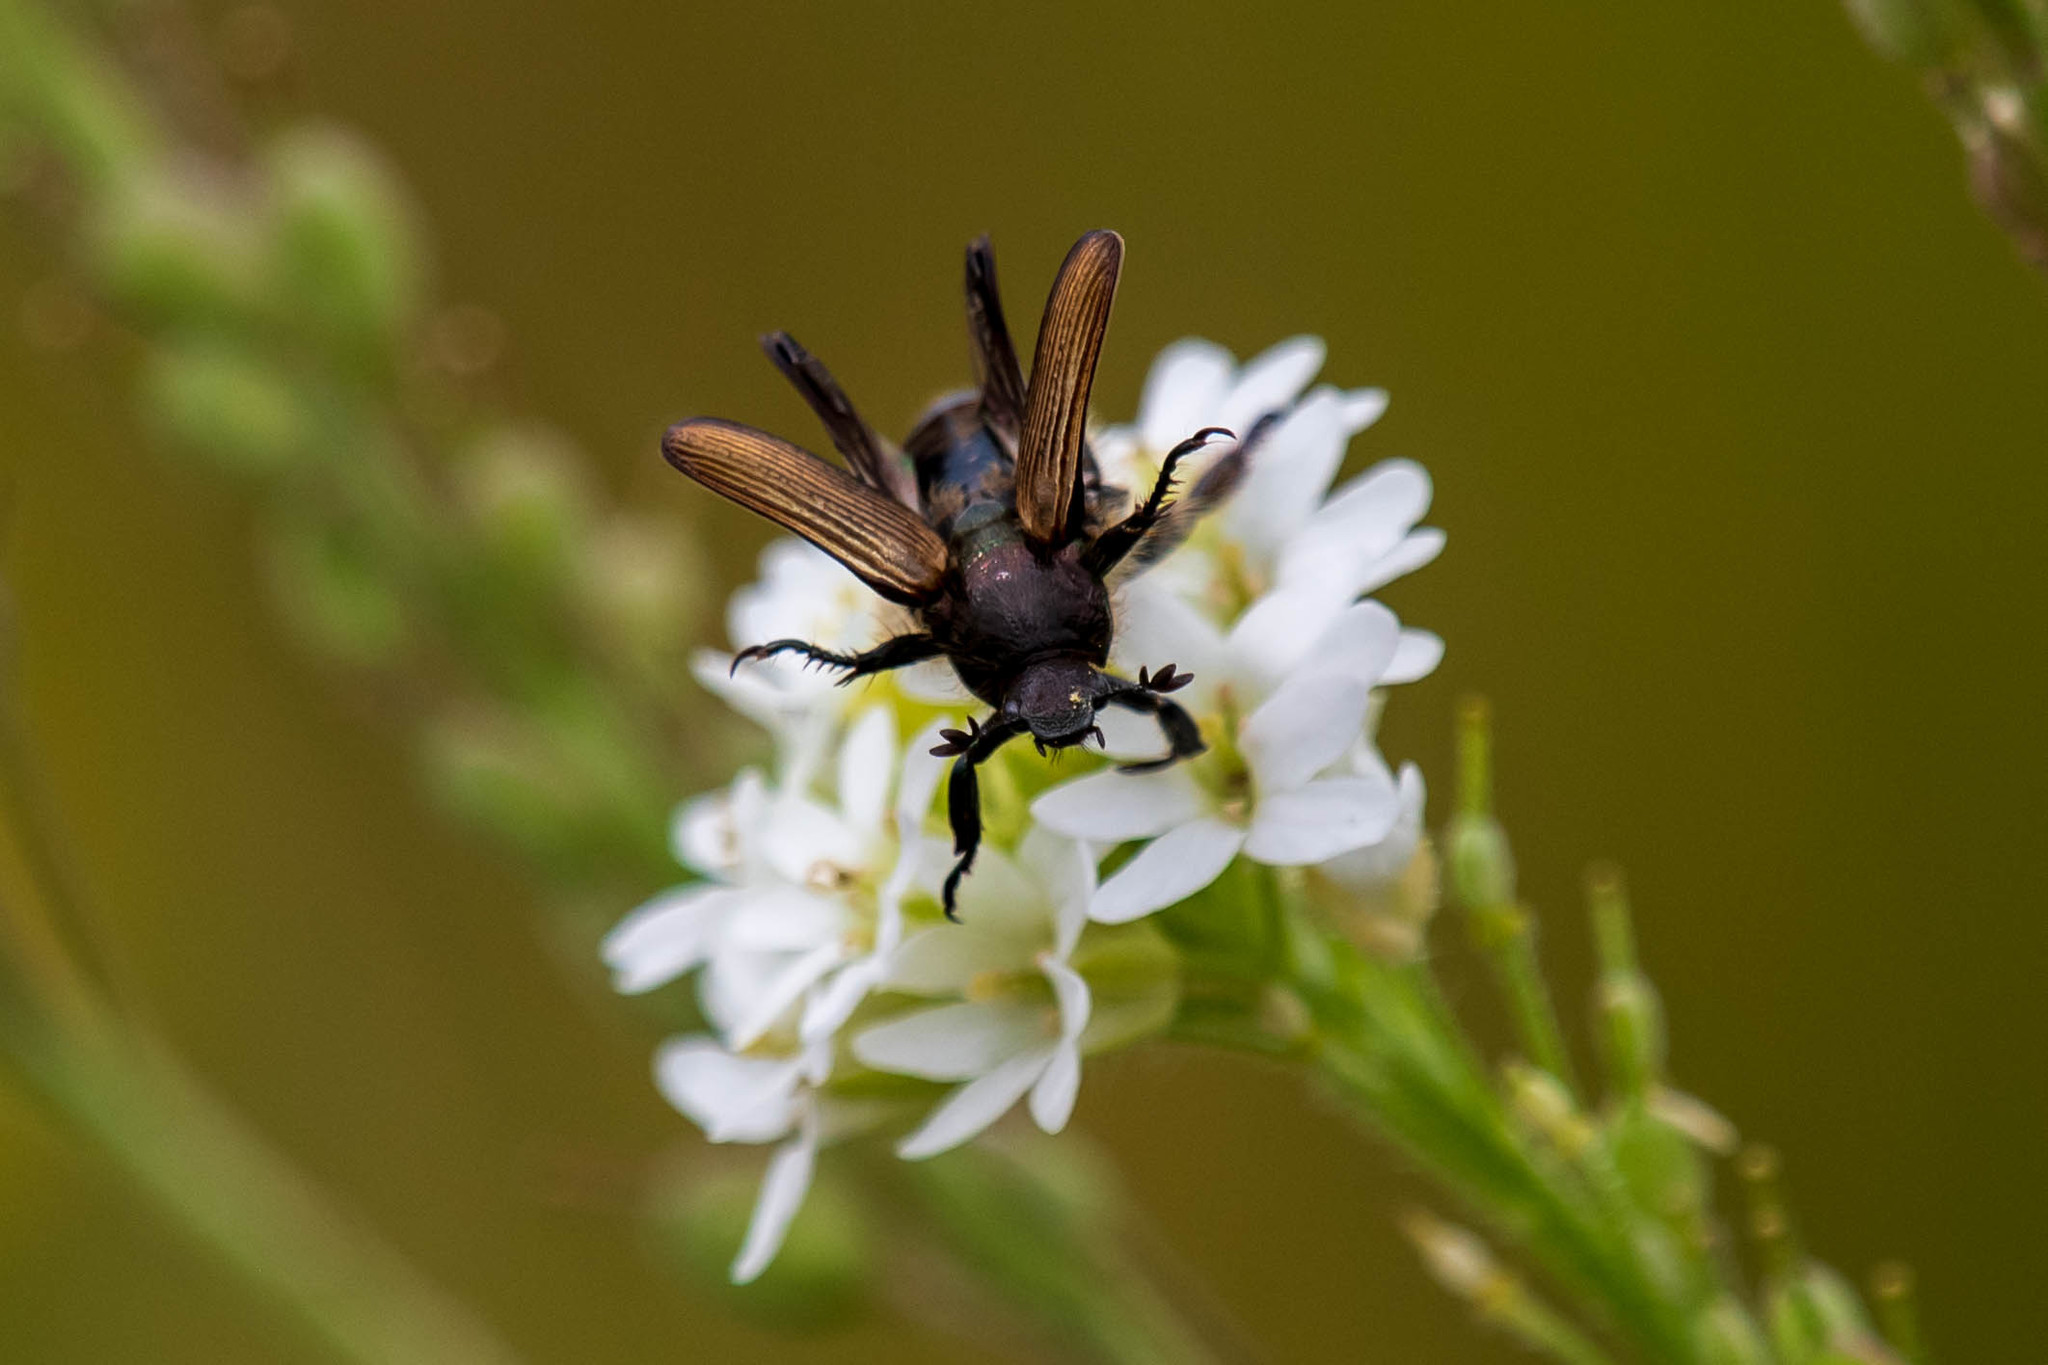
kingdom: Animalia
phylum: Arthropoda
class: Insecta
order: Coleoptera
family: Scarabaeidae
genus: Strigoderma
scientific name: Strigoderma arbicola
